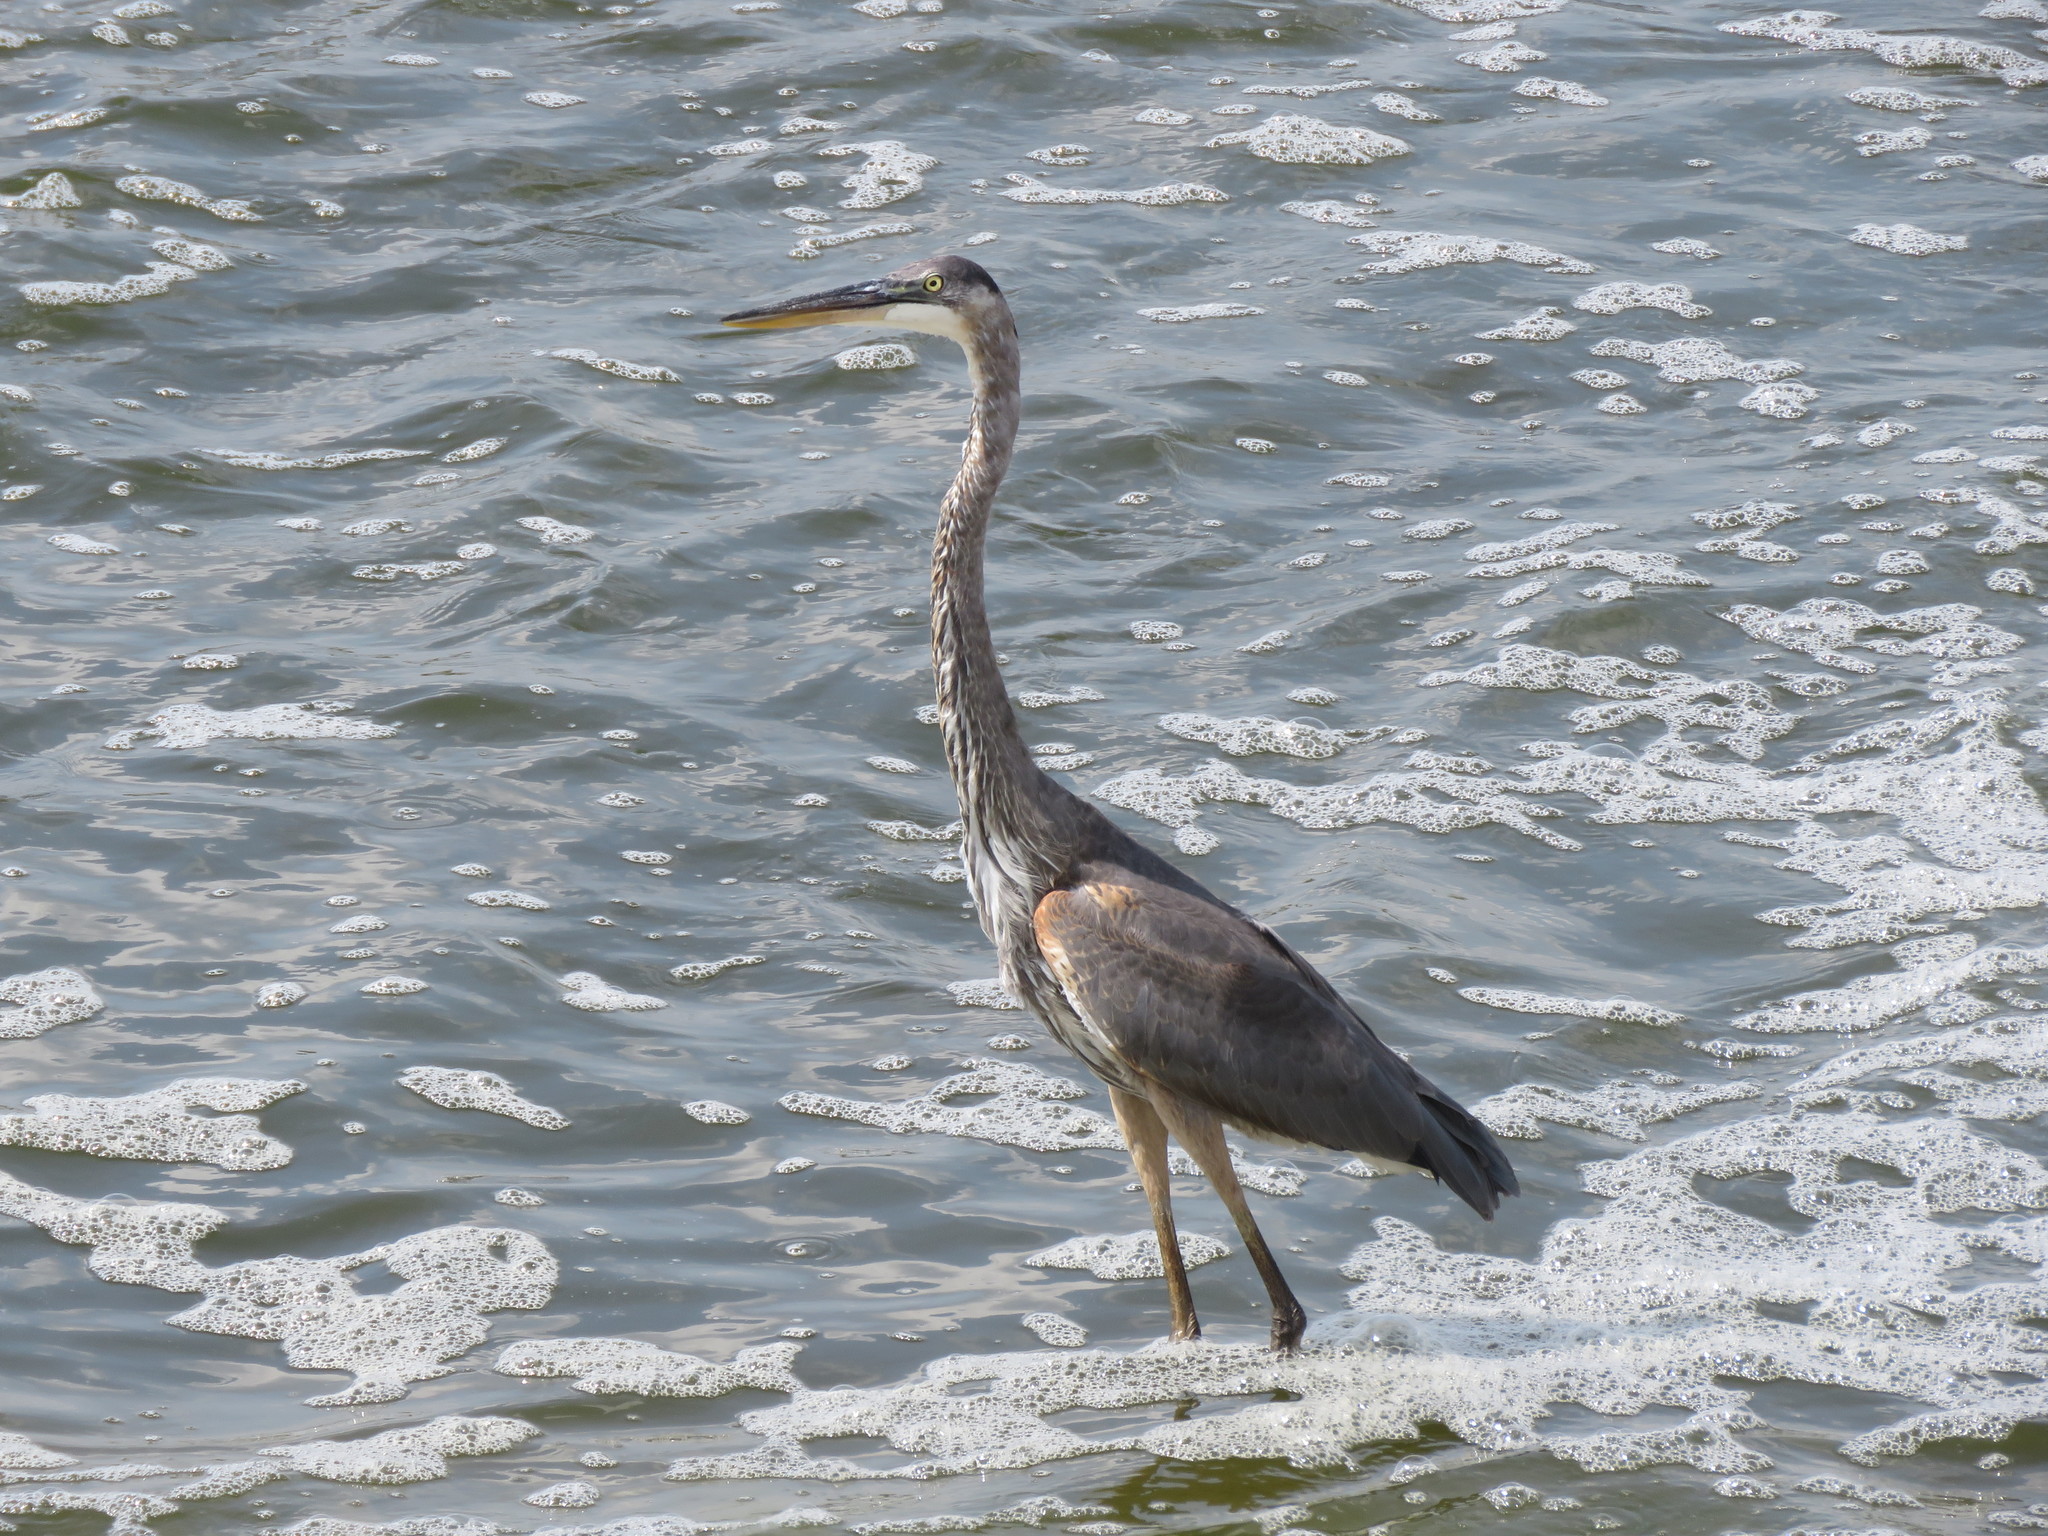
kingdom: Animalia
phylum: Chordata
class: Aves
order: Pelecaniformes
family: Ardeidae
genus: Ardea
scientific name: Ardea herodias
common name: Great blue heron
